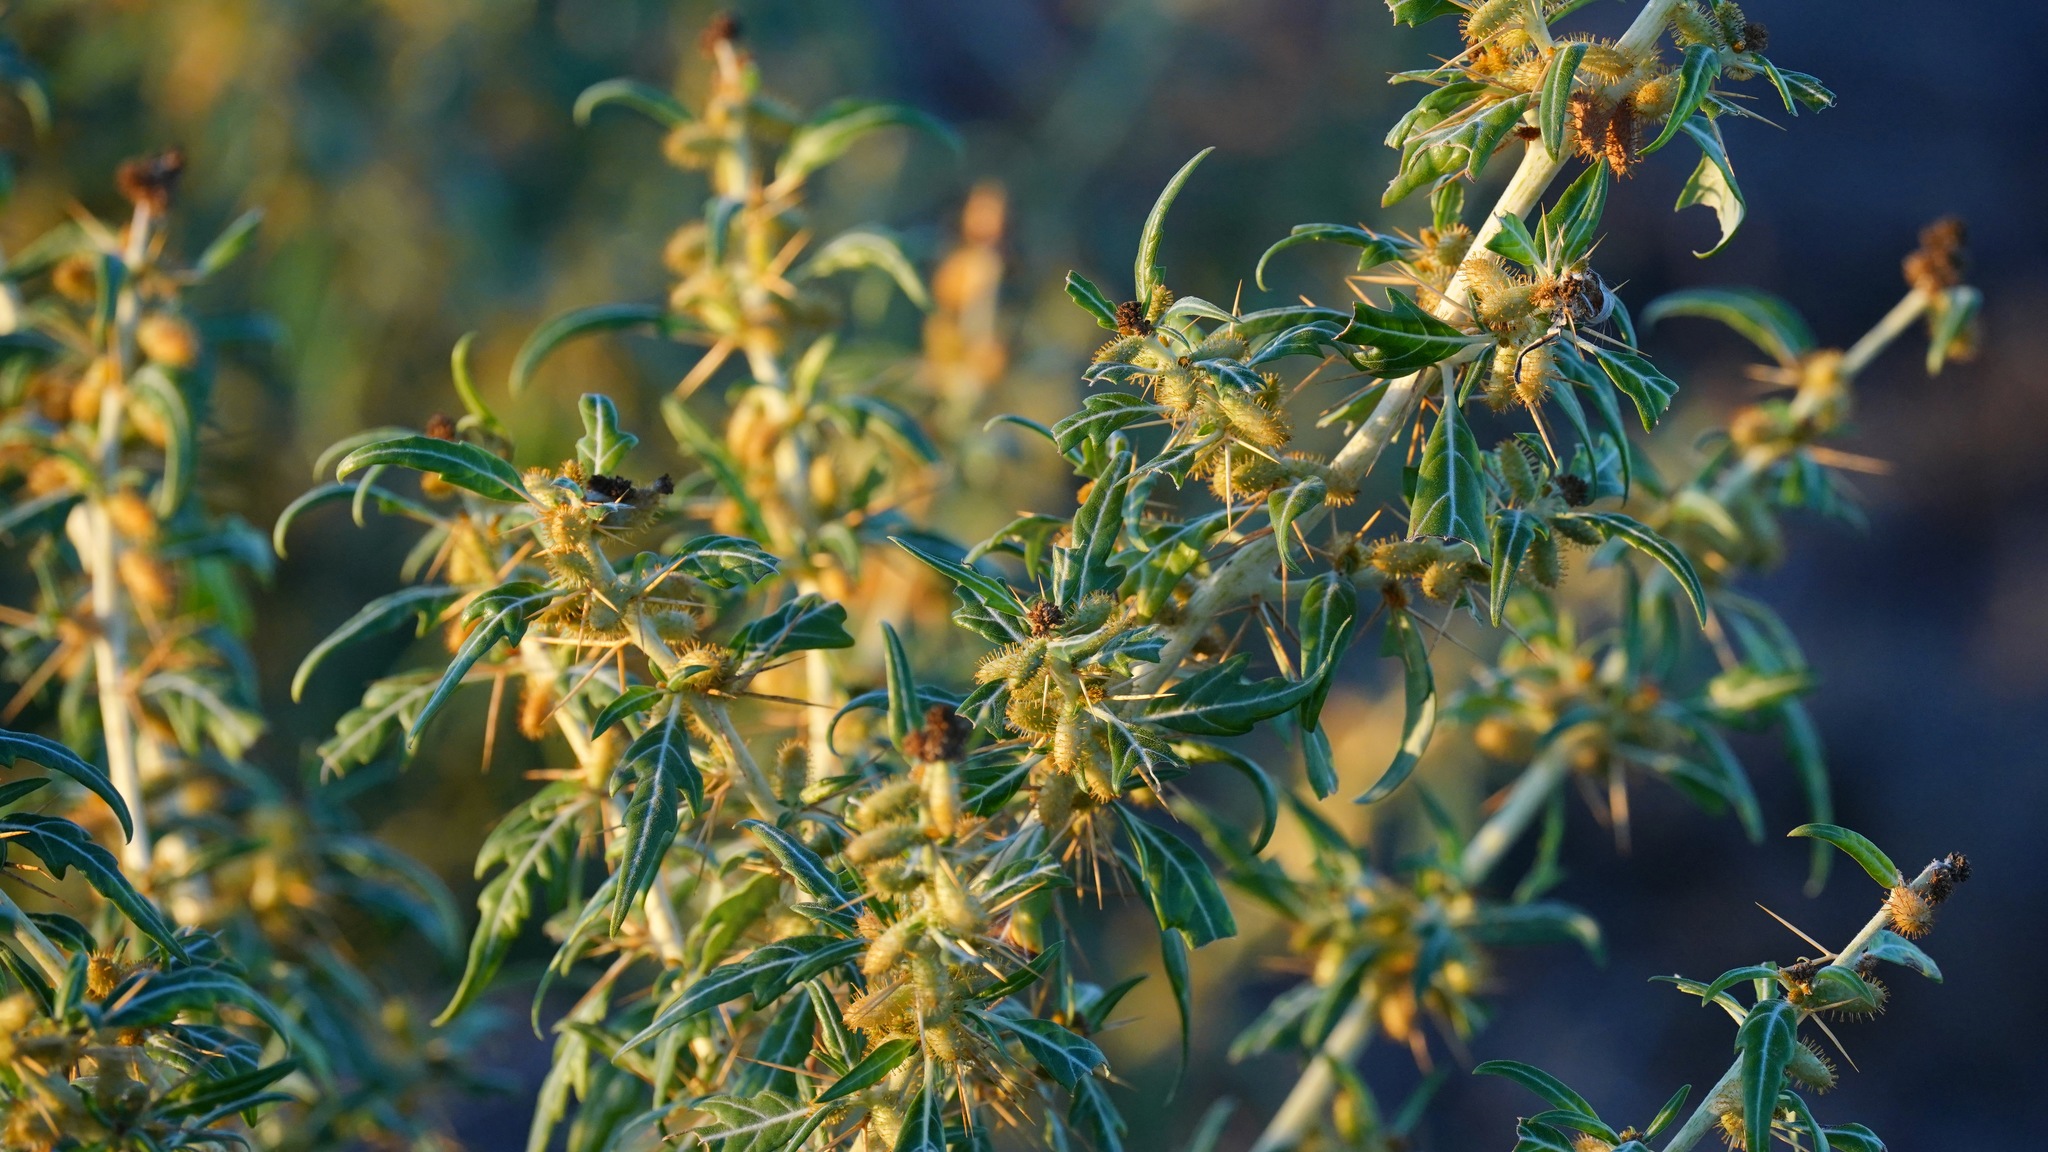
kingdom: Plantae
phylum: Tracheophyta
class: Magnoliopsida
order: Asterales
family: Asteraceae
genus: Xanthium
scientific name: Xanthium spinosum
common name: Spiny cocklebur
